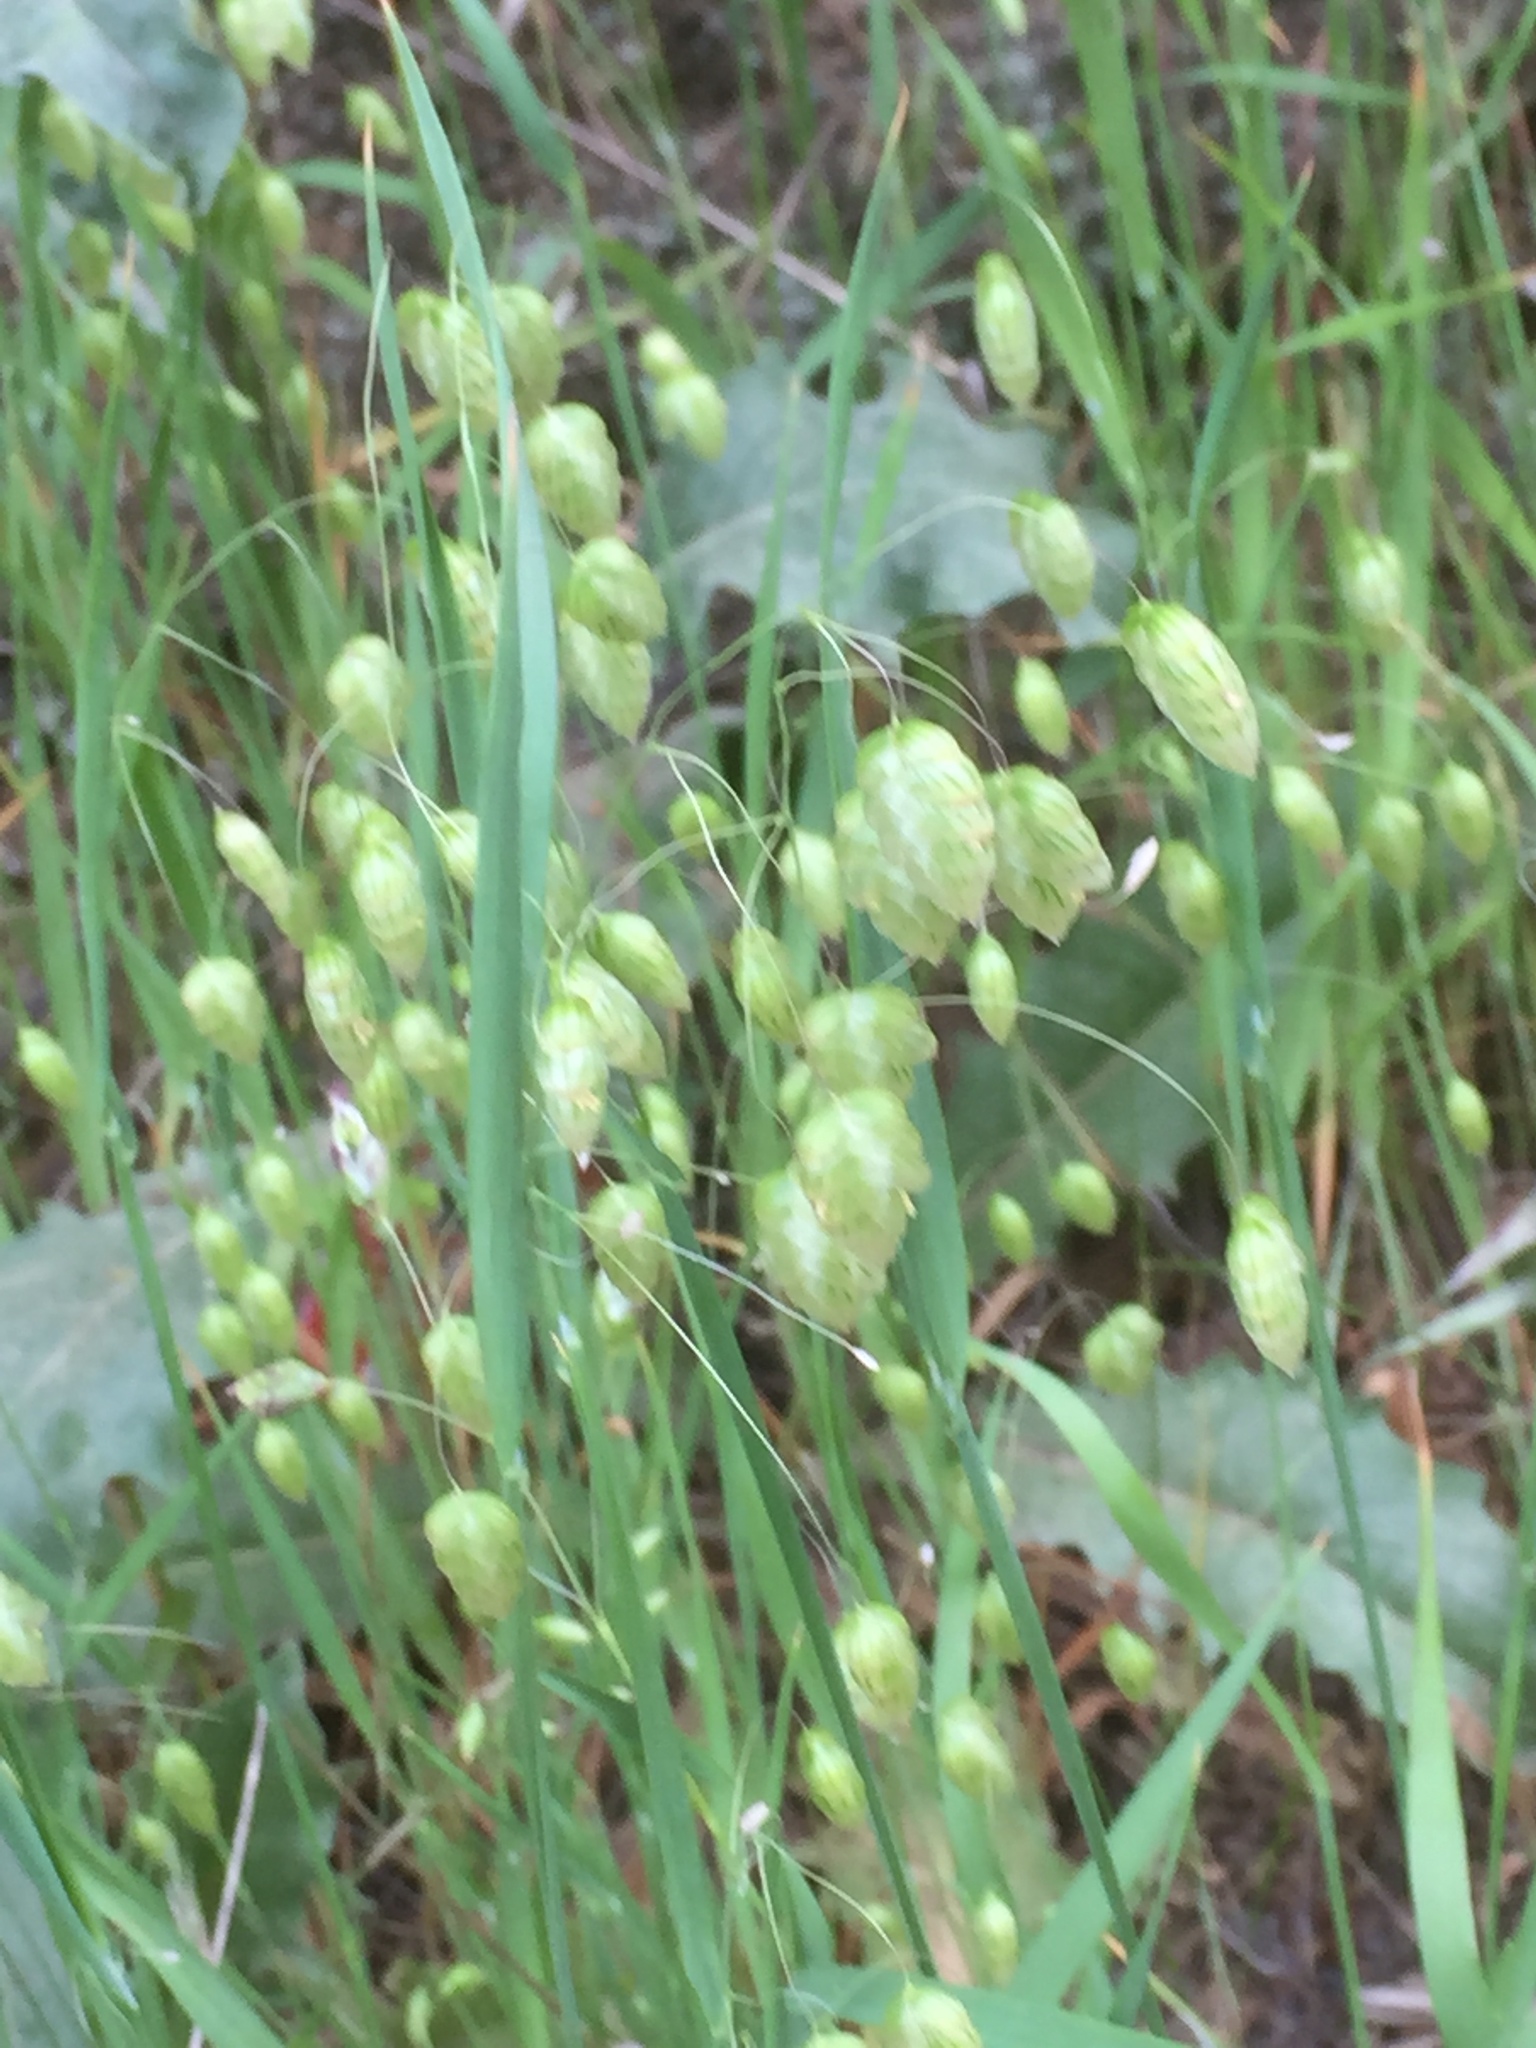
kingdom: Plantae
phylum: Tracheophyta
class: Liliopsida
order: Poales
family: Poaceae
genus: Briza
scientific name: Briza maxima
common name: Big quakinggrass
